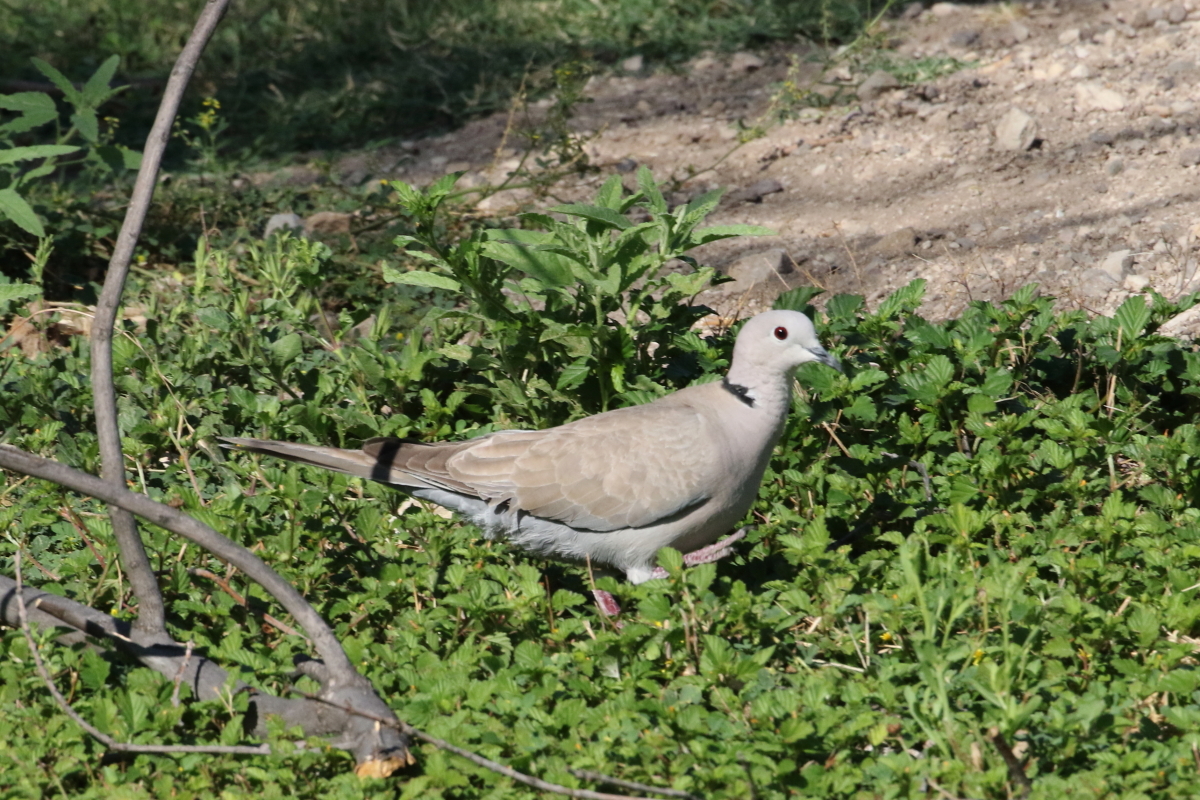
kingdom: Animalia
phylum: Chordata
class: Aves
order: Columbiformes
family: Columbidae
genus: Streptopelia
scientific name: Streptopelia decaocto
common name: Eurasian collared dove
